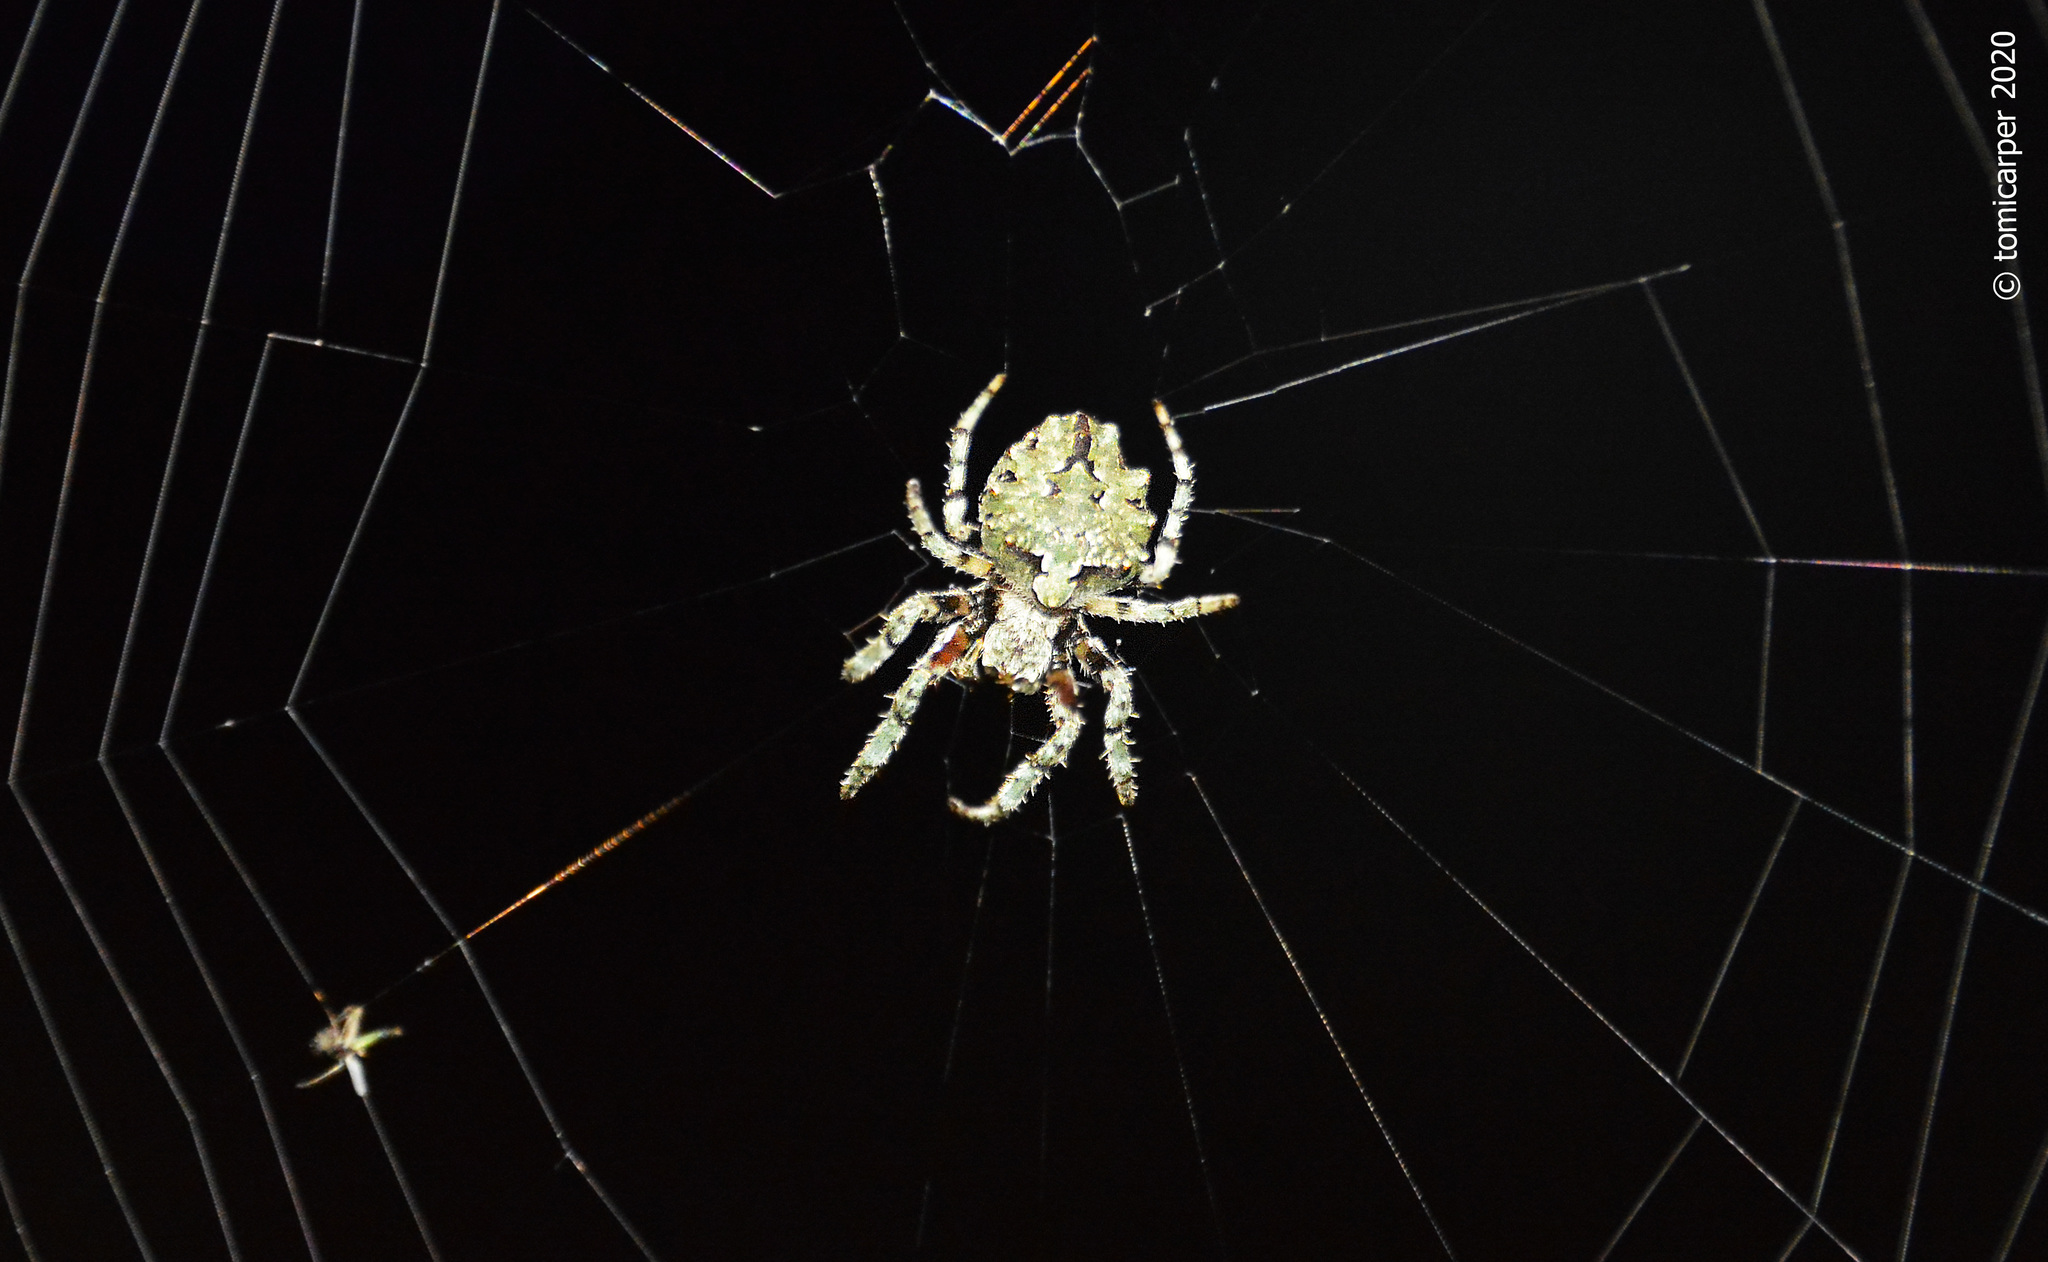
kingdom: Animalia
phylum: Arthropoda
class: Arachnida
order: Araneae
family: Araneidae
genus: Parawixia
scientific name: Parawixia audax
